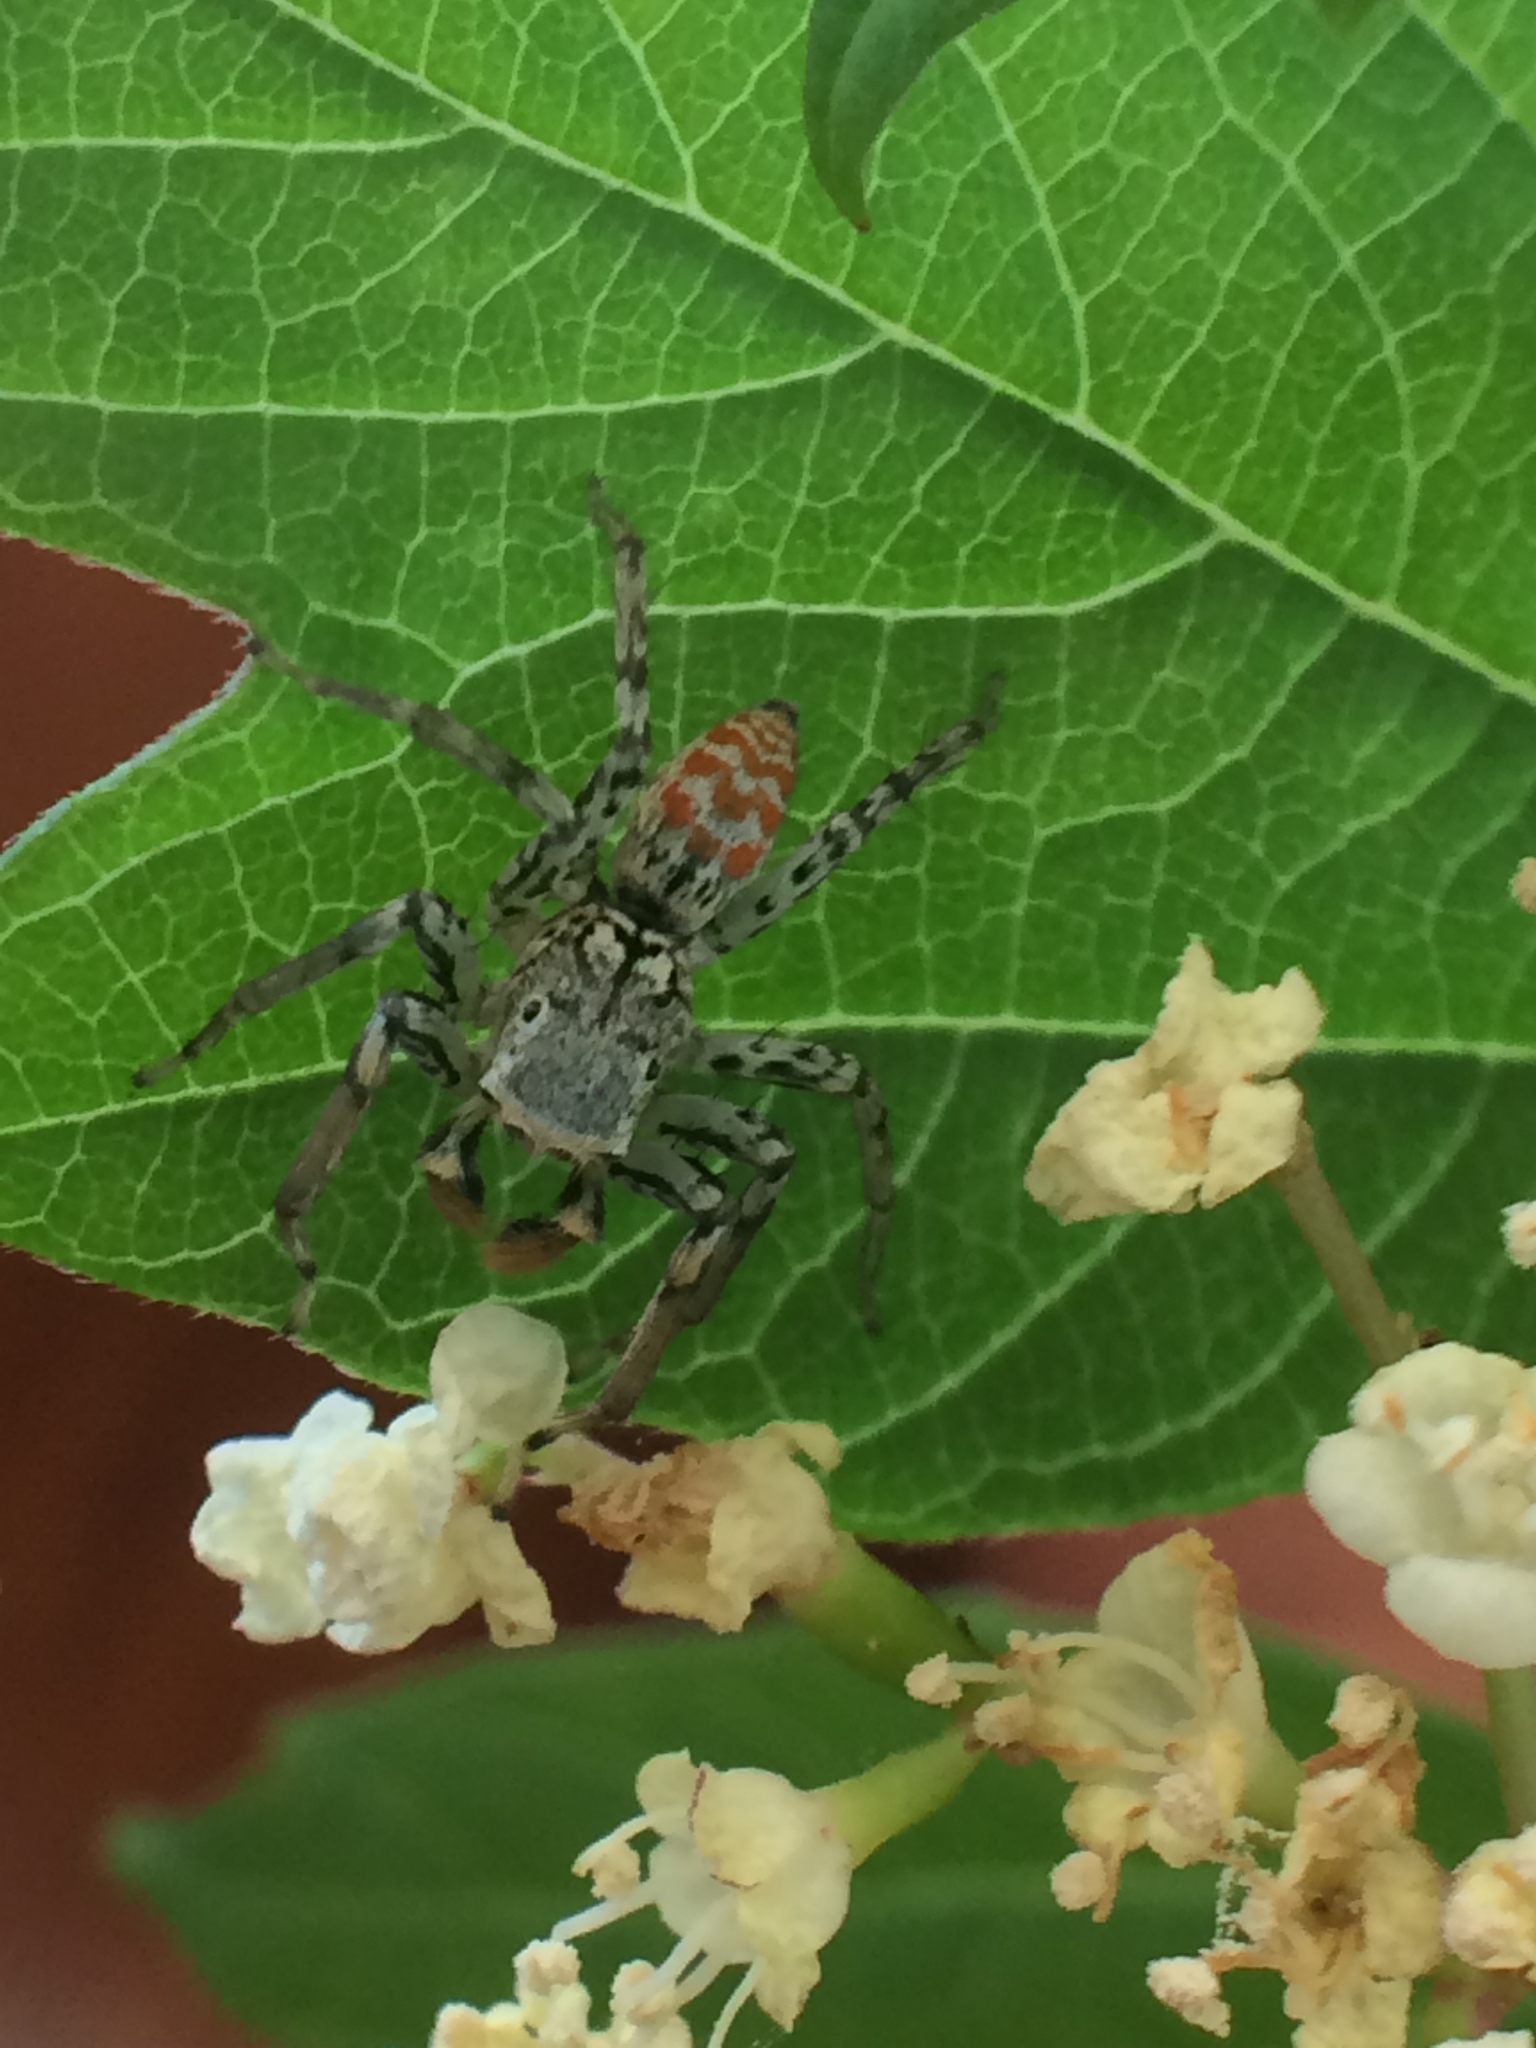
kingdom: Animalia
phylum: Arthropoda
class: Arachnida
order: Araneae
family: Salticidae
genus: Maevia
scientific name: Maevia inclemens
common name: Dimorphic jumper
